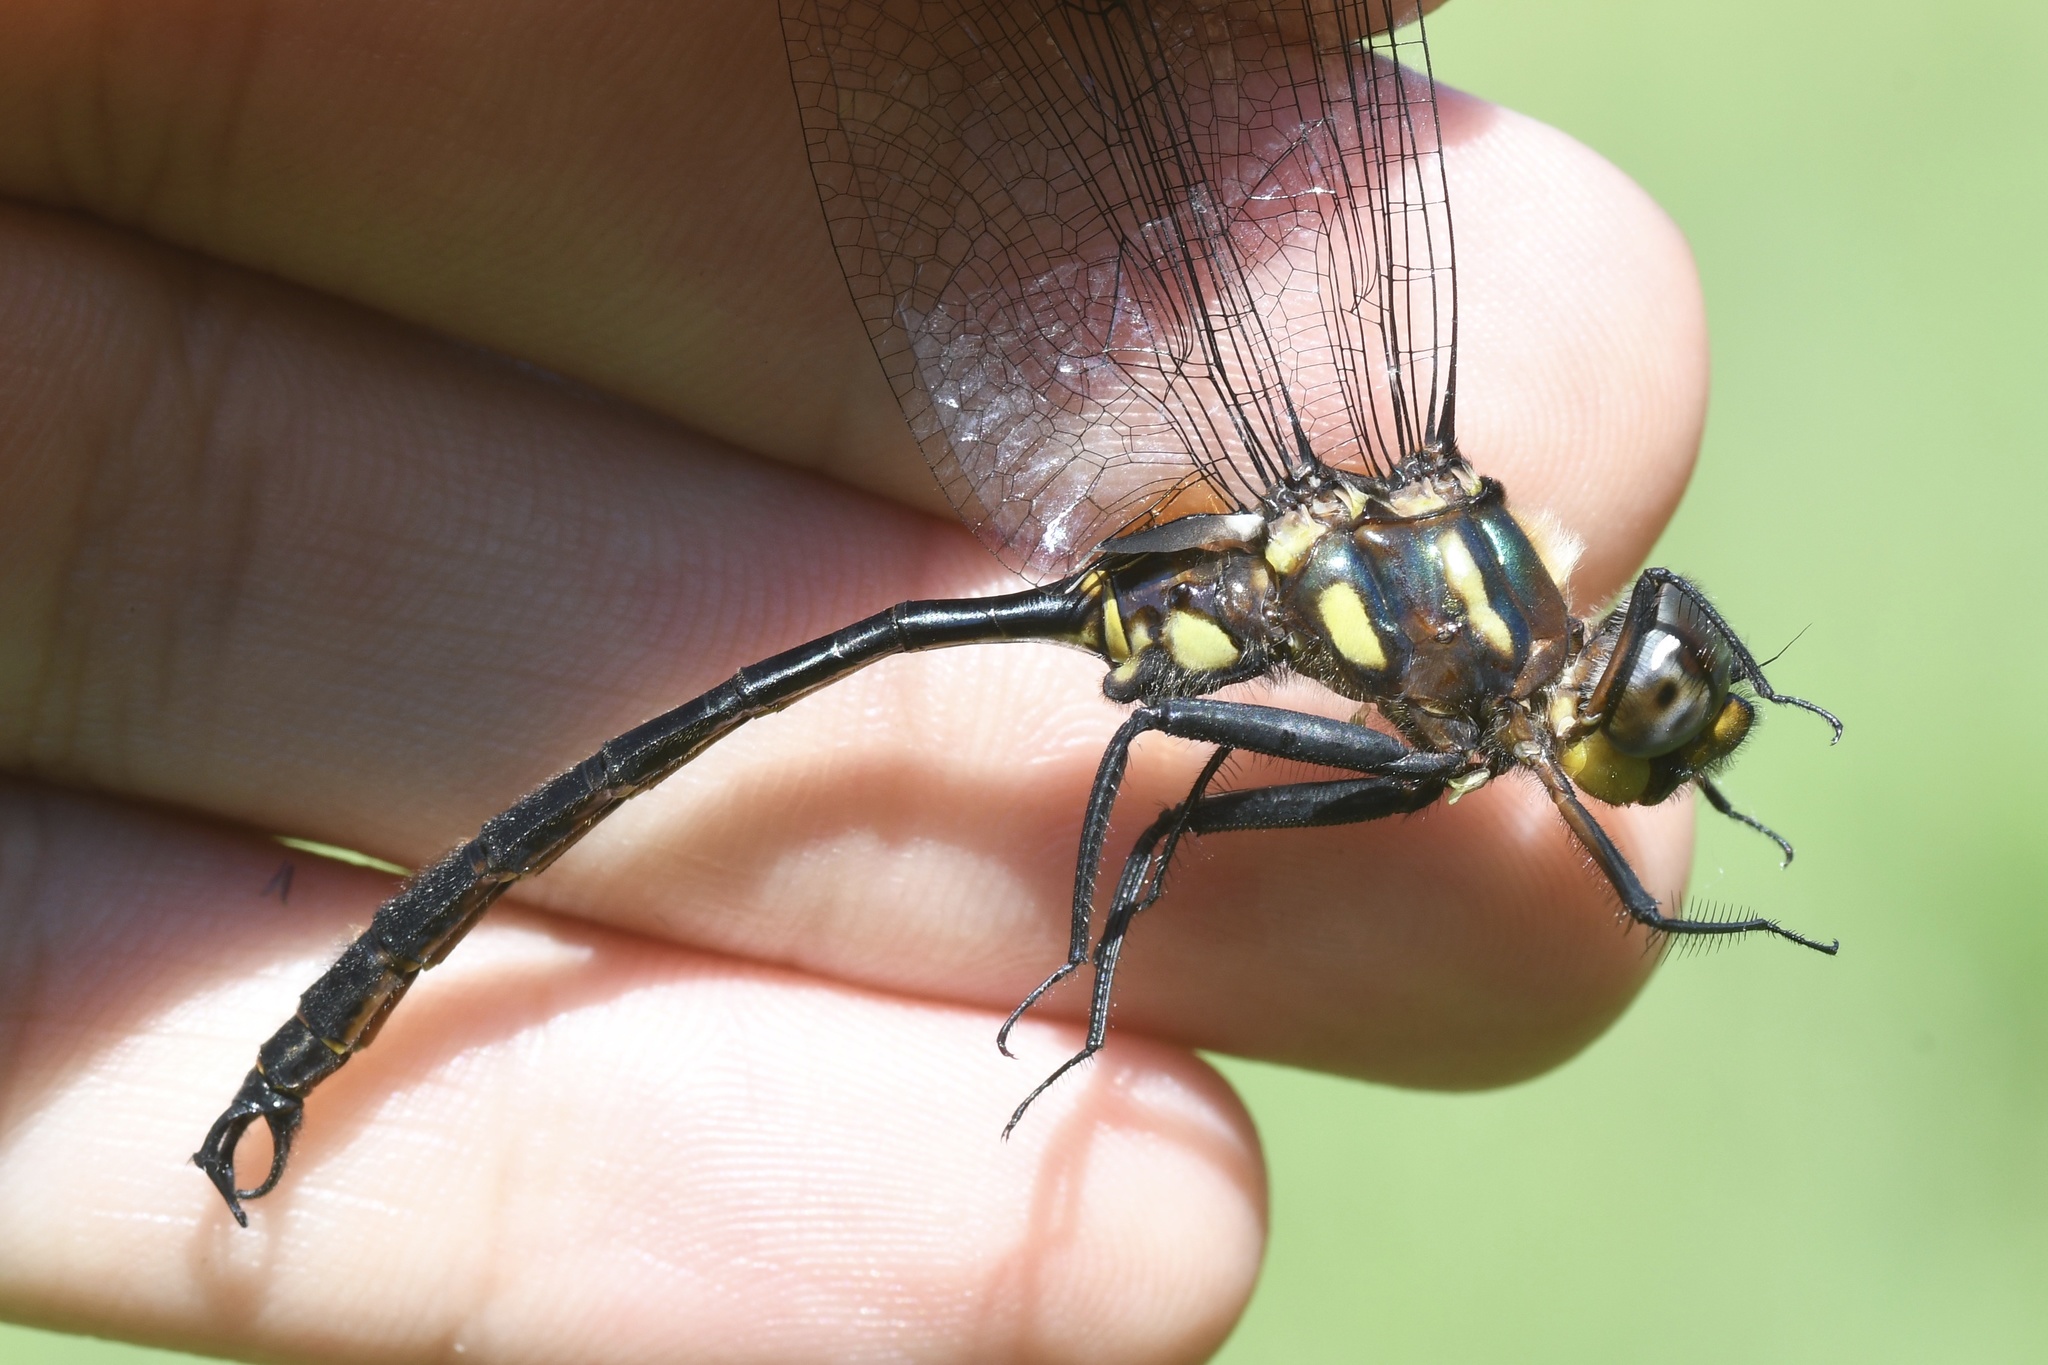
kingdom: Animalia
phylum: Arthropoda
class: Insecta
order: Odonata
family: Corduliidae
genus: Somatochlora
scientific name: Somatochlora tenebrosa
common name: Clamp-tipped emerald
